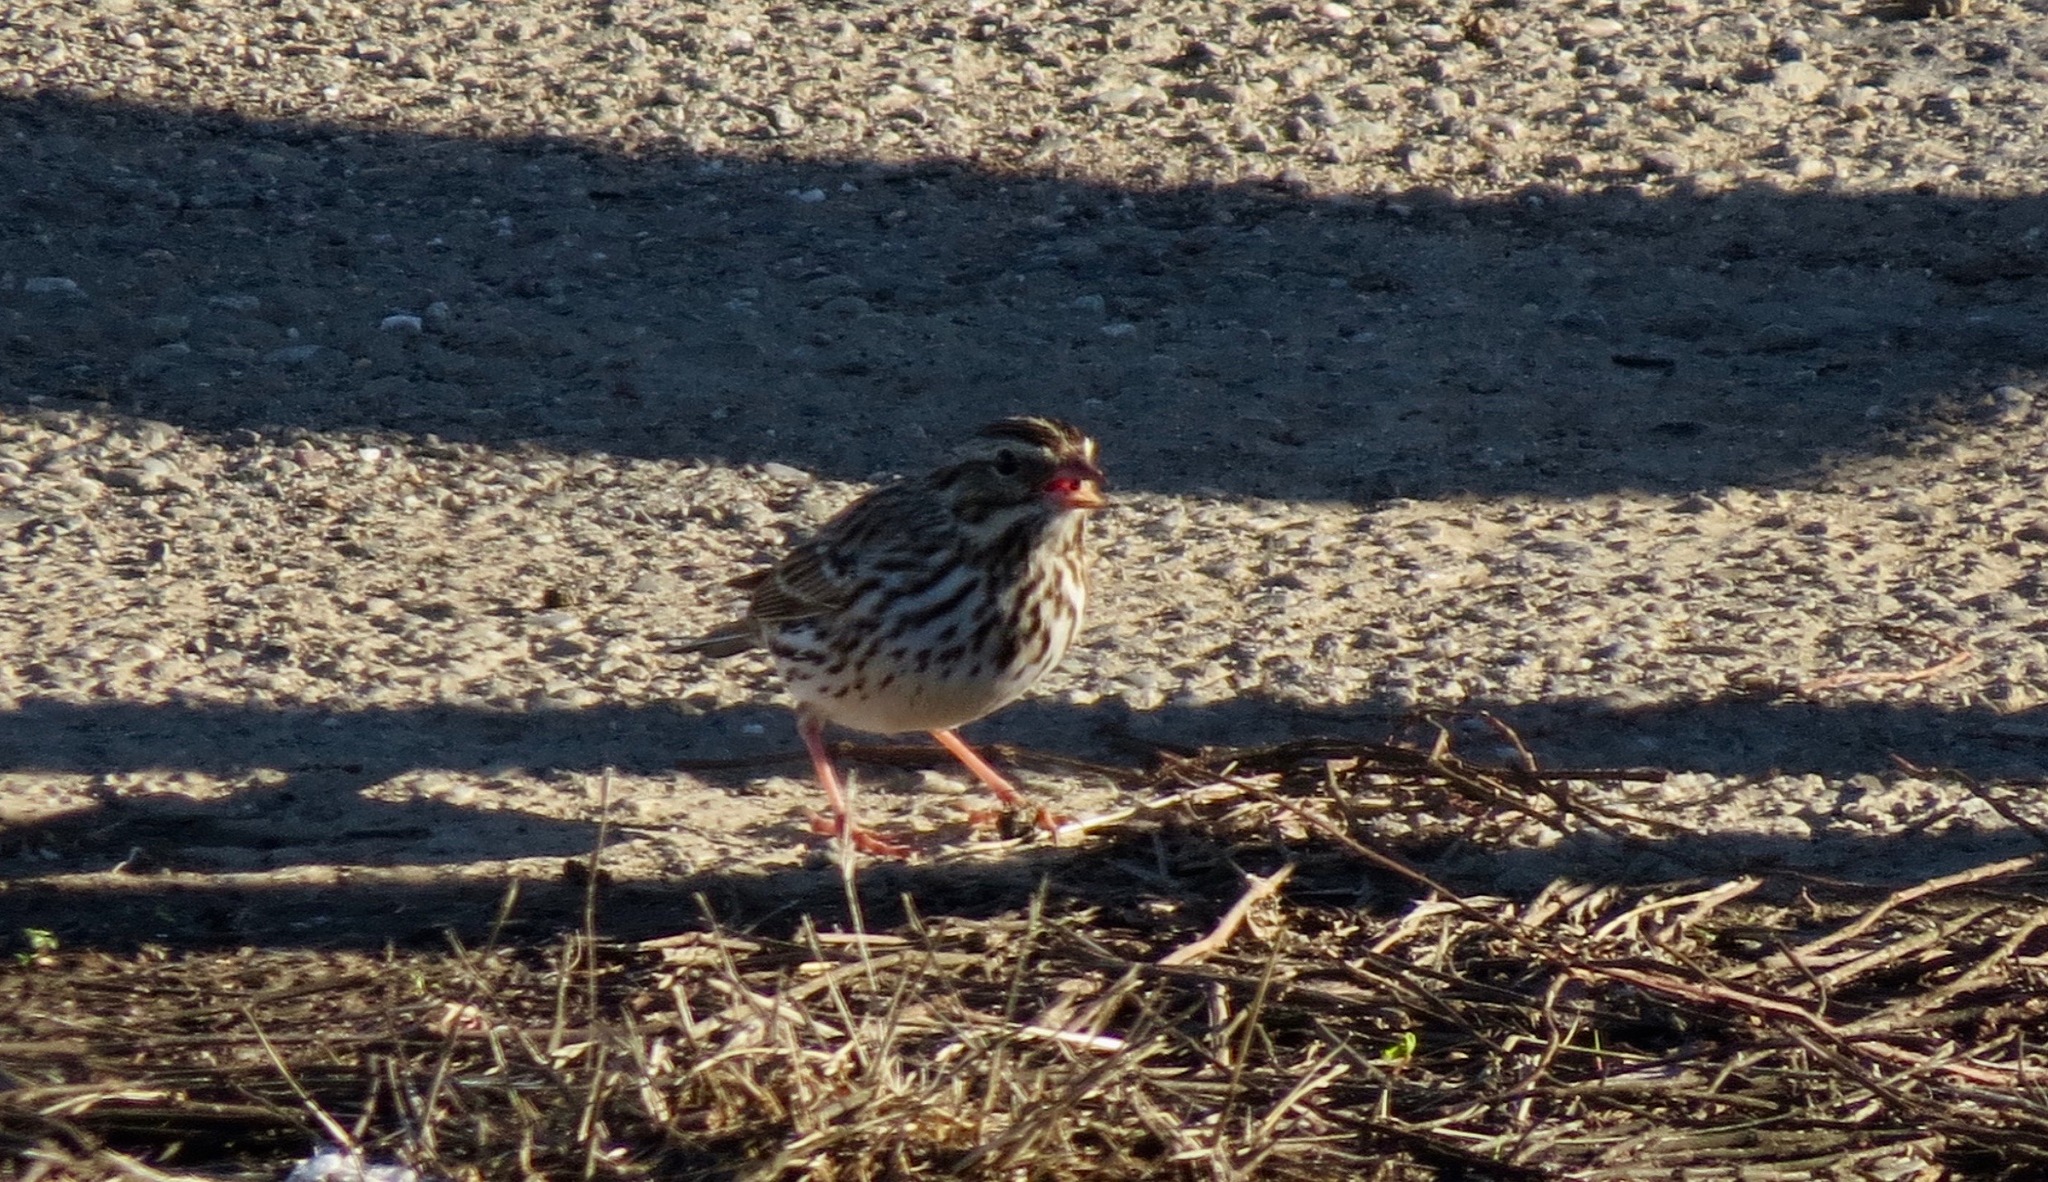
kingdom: Animalia
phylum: Chordata
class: Aves
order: Passeriformes
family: Passerellidae
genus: Passerculus
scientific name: Passerculus sandwichensis
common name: Savannah sparrow
